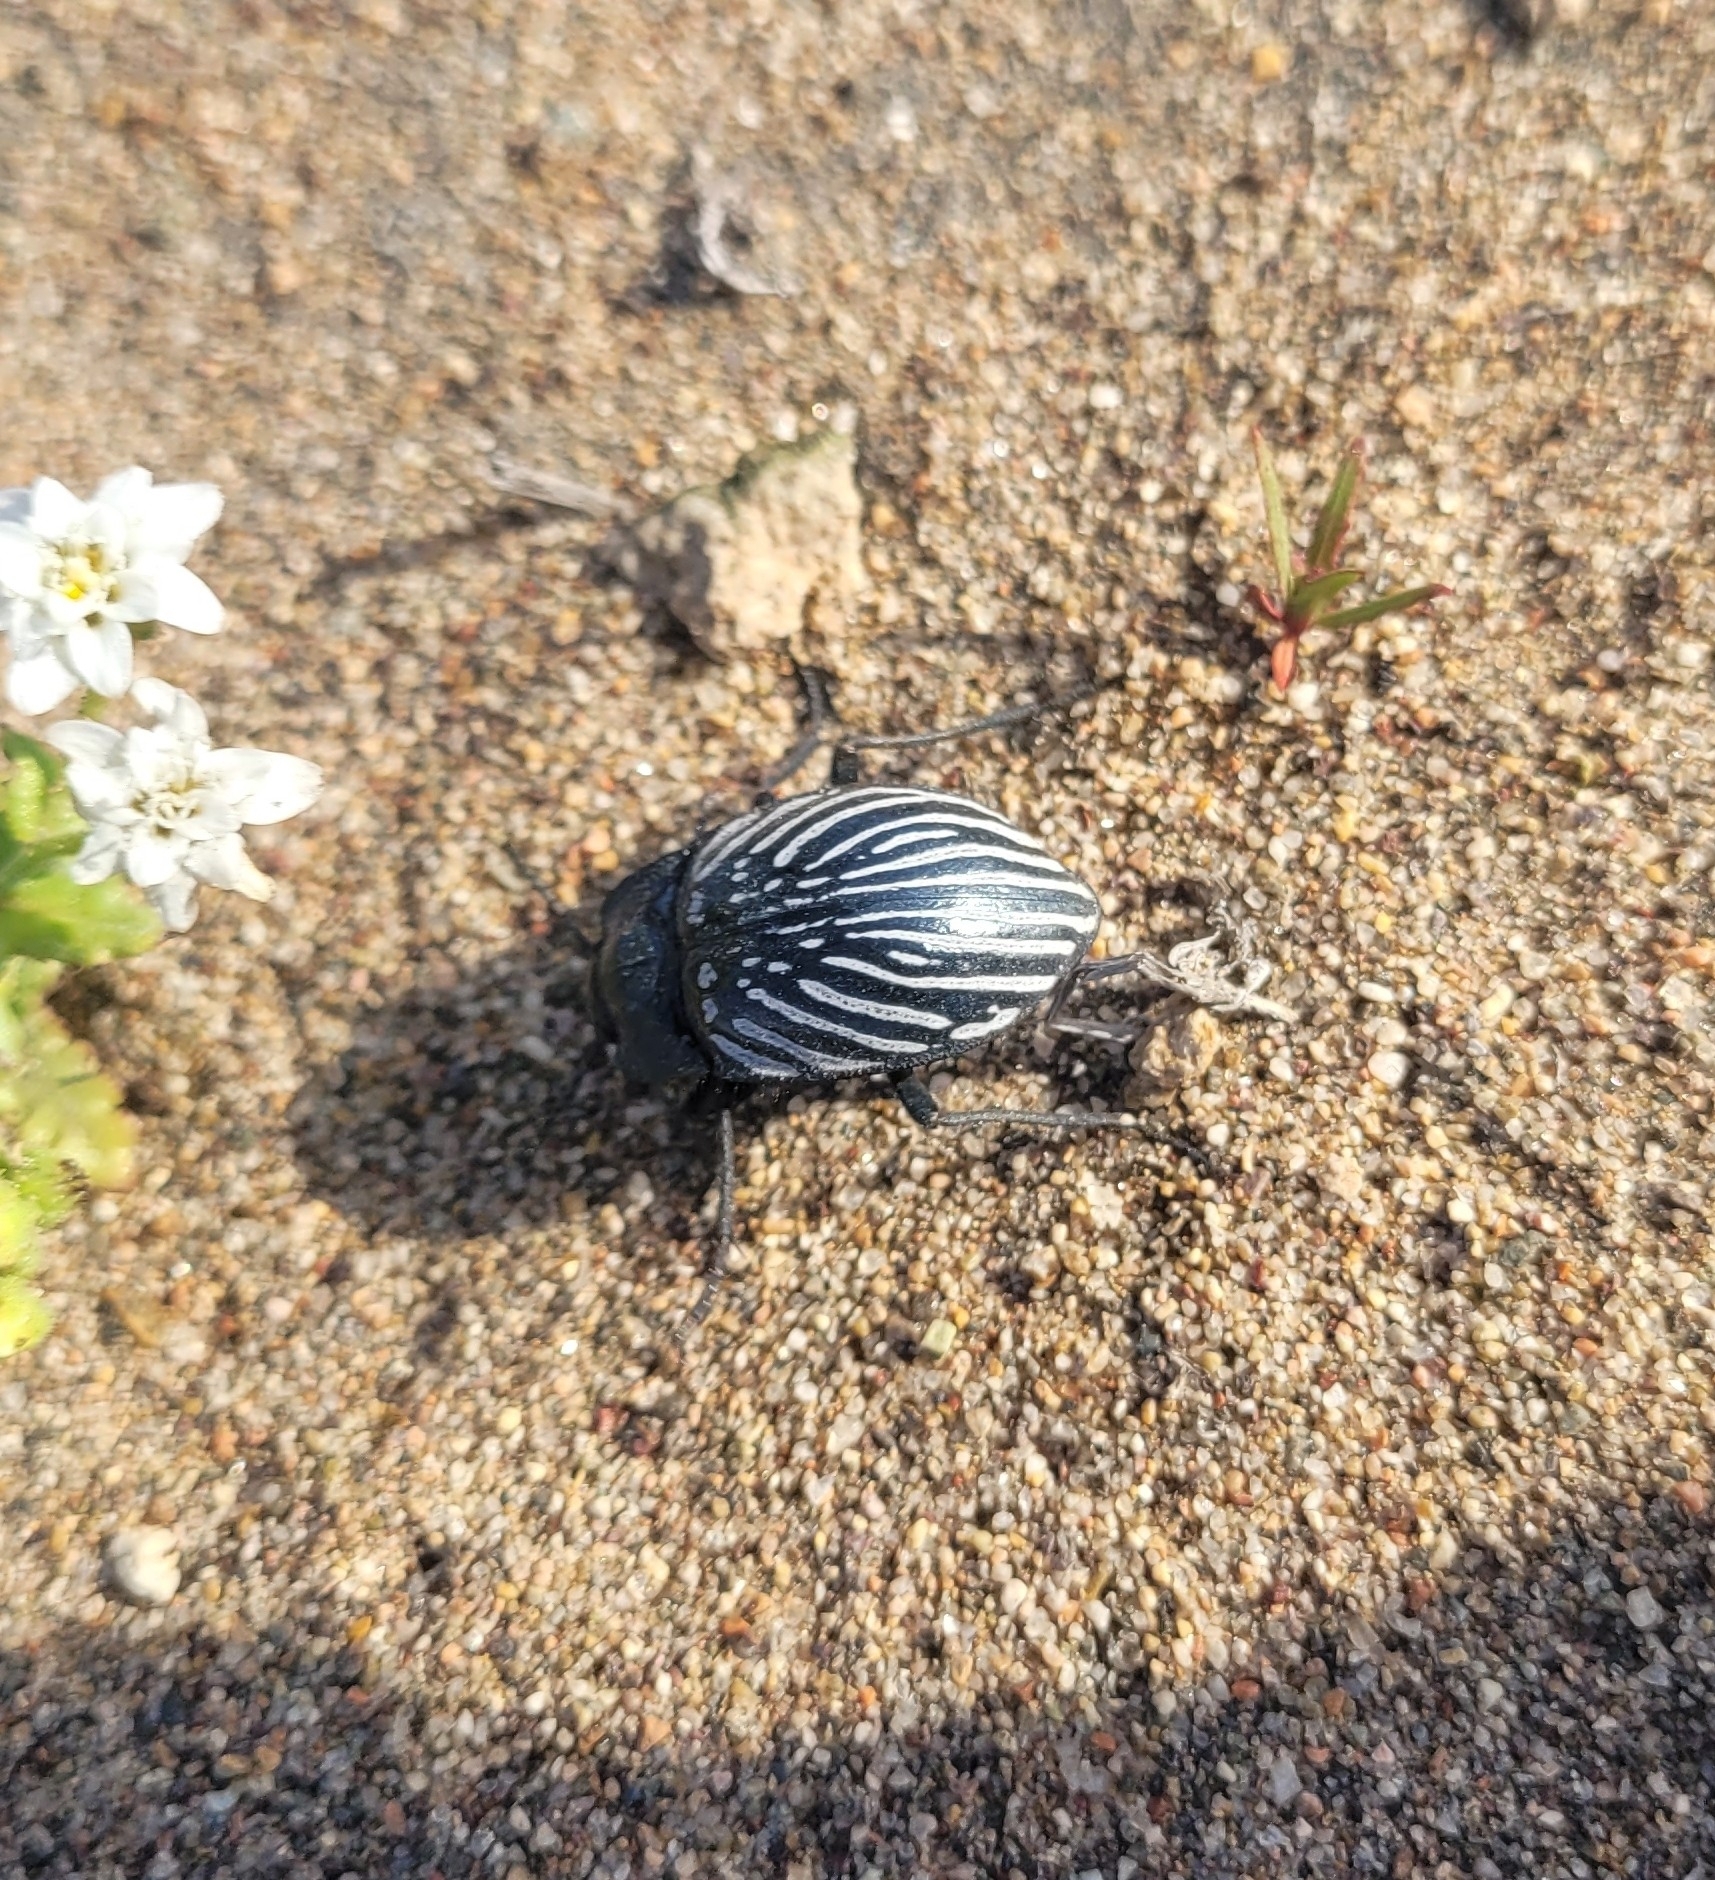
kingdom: Animalia
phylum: Arthropoda
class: Insecta
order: Coleoptera
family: Tenebrionidae
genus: Gyriosomus
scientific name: Gyriosomus
